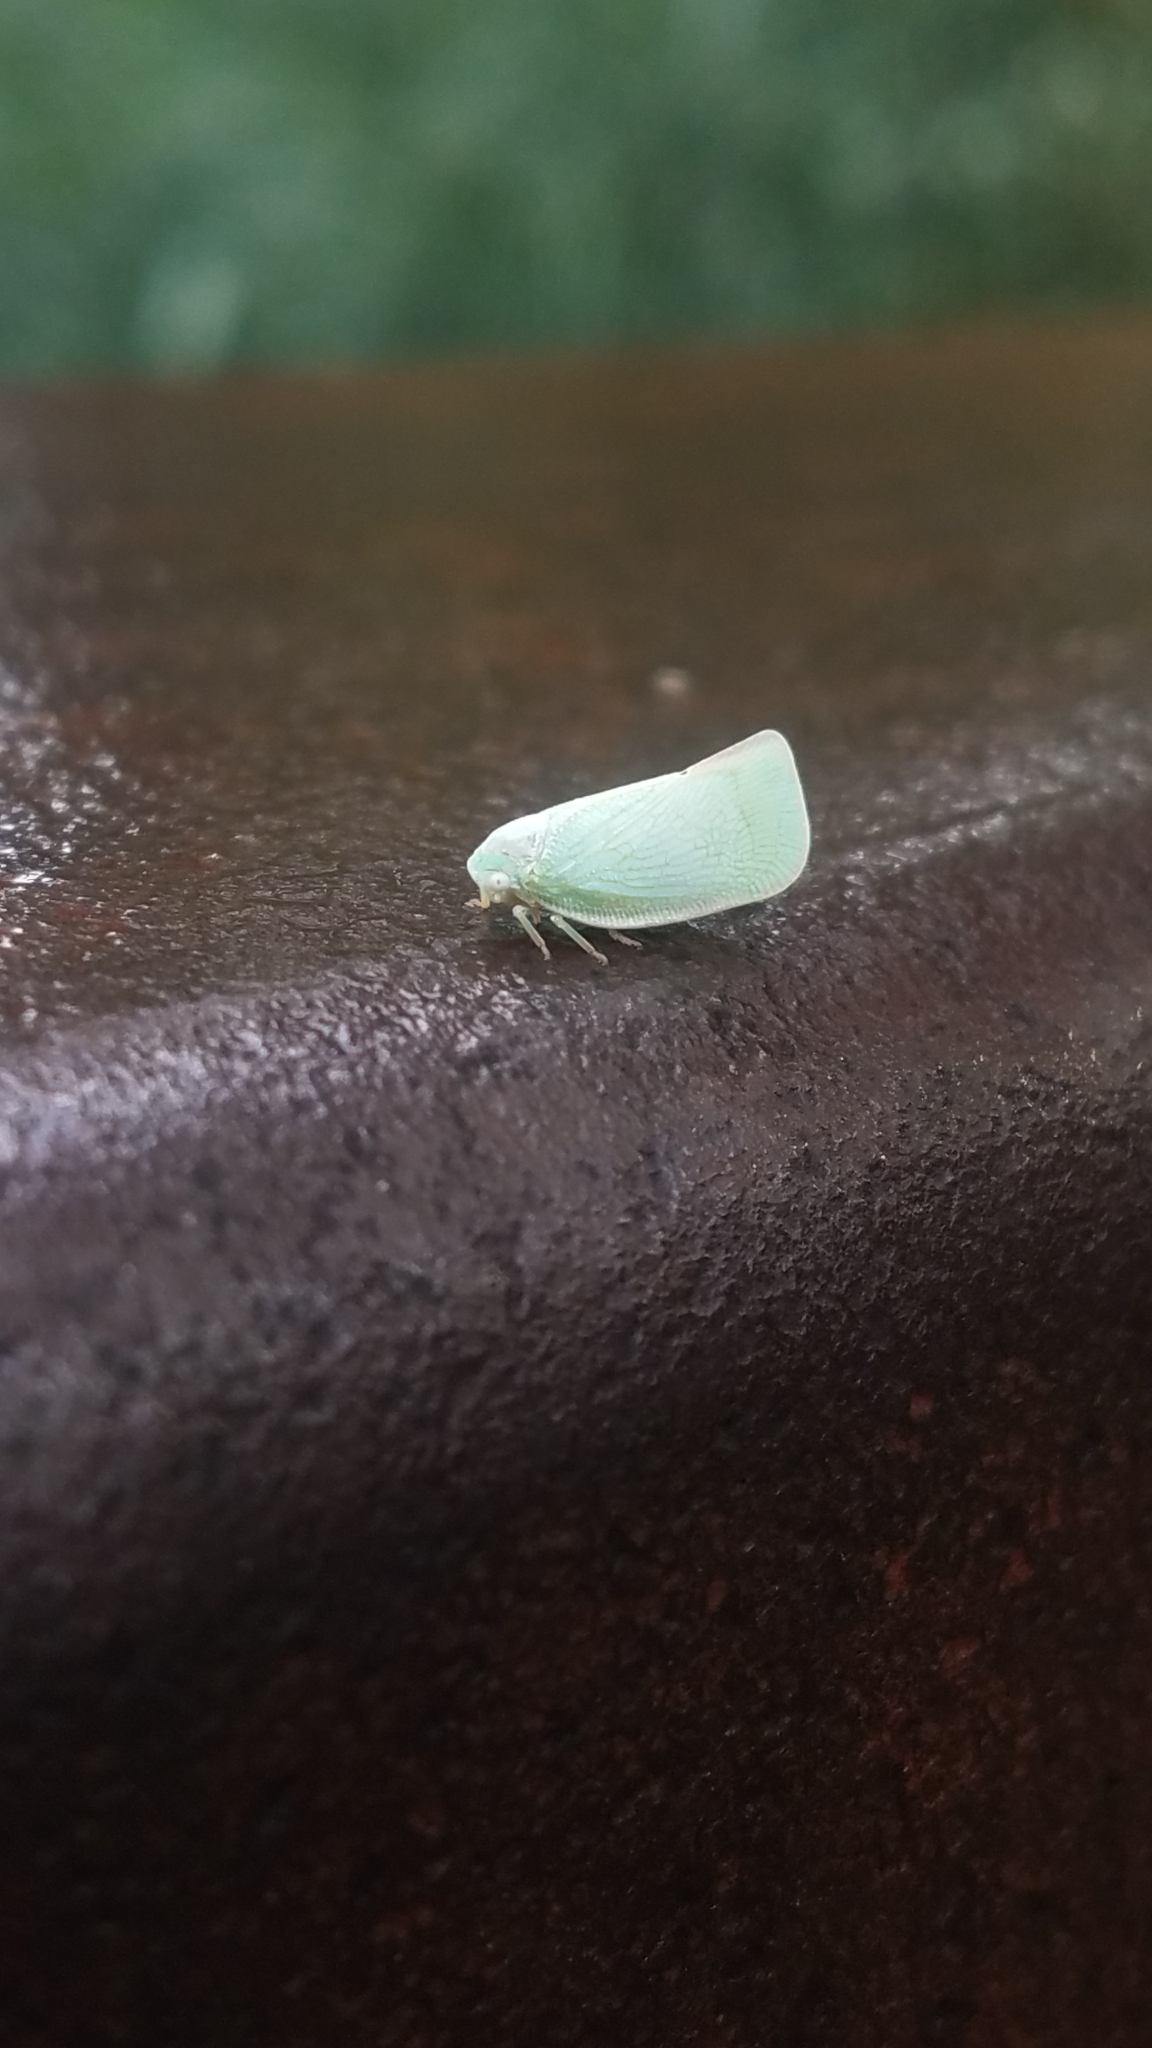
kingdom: Animalia
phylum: Arthropoda
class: Insecta
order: Hemiptera
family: Flatidae
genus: Flatormenis
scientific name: Flatormenis proxima
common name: Northern flatid planthopper
